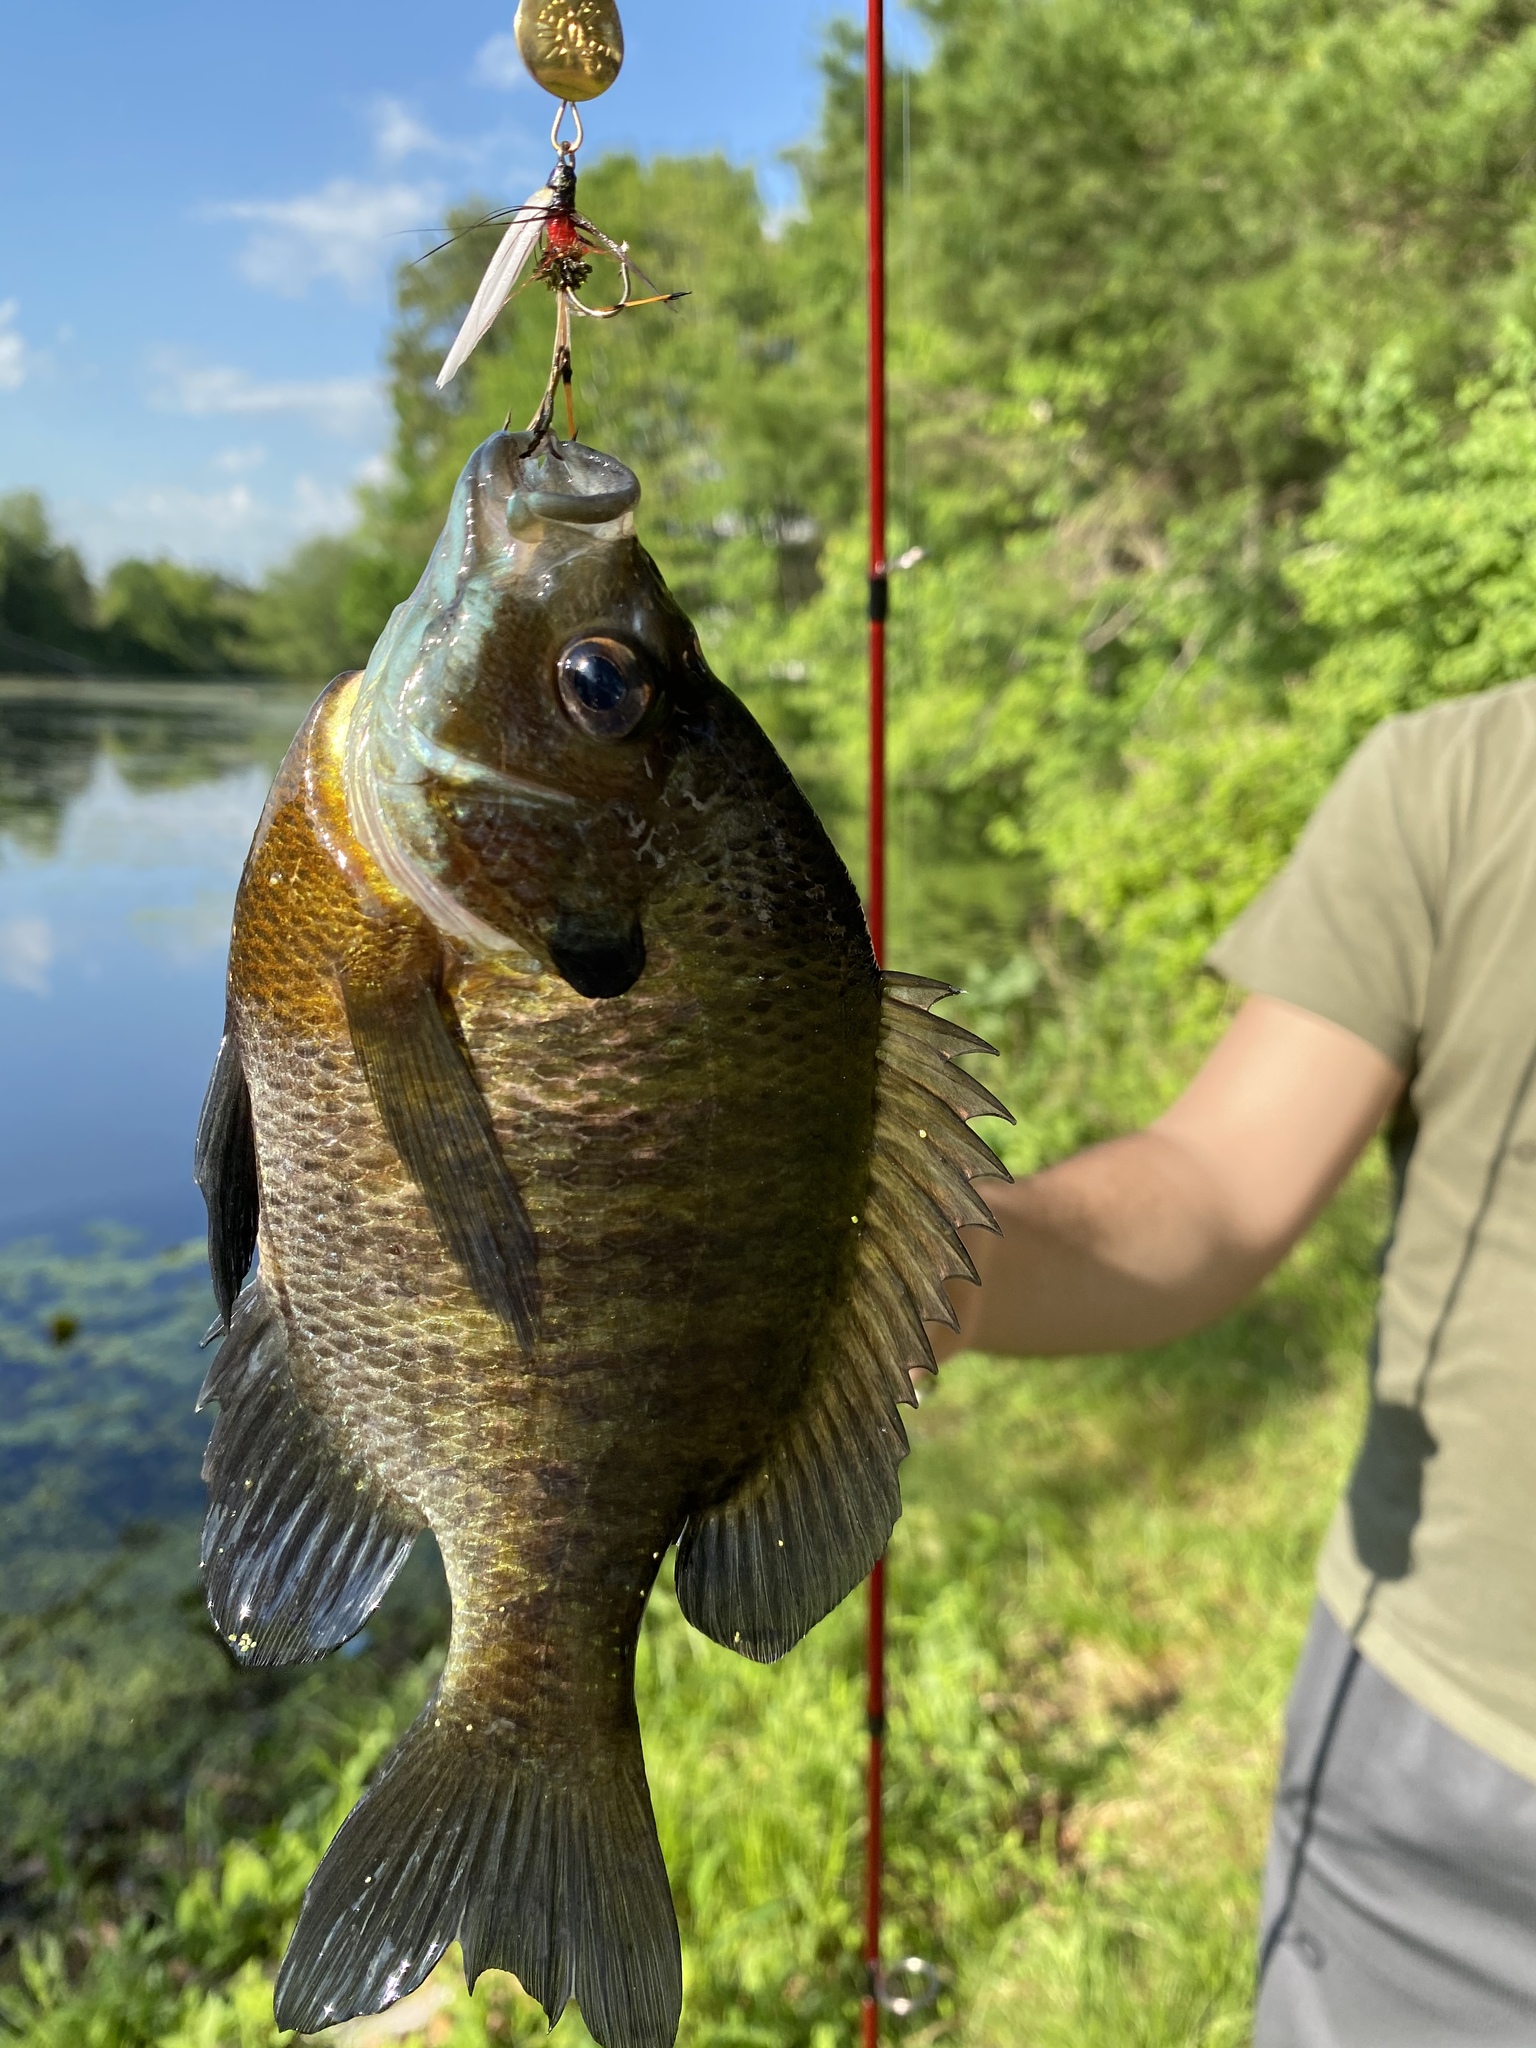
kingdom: Animalia
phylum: Chordata
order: Perciformes
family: Centrarchidae
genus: Lepomis
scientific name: Lepomis macrochirus
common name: Bluegill
